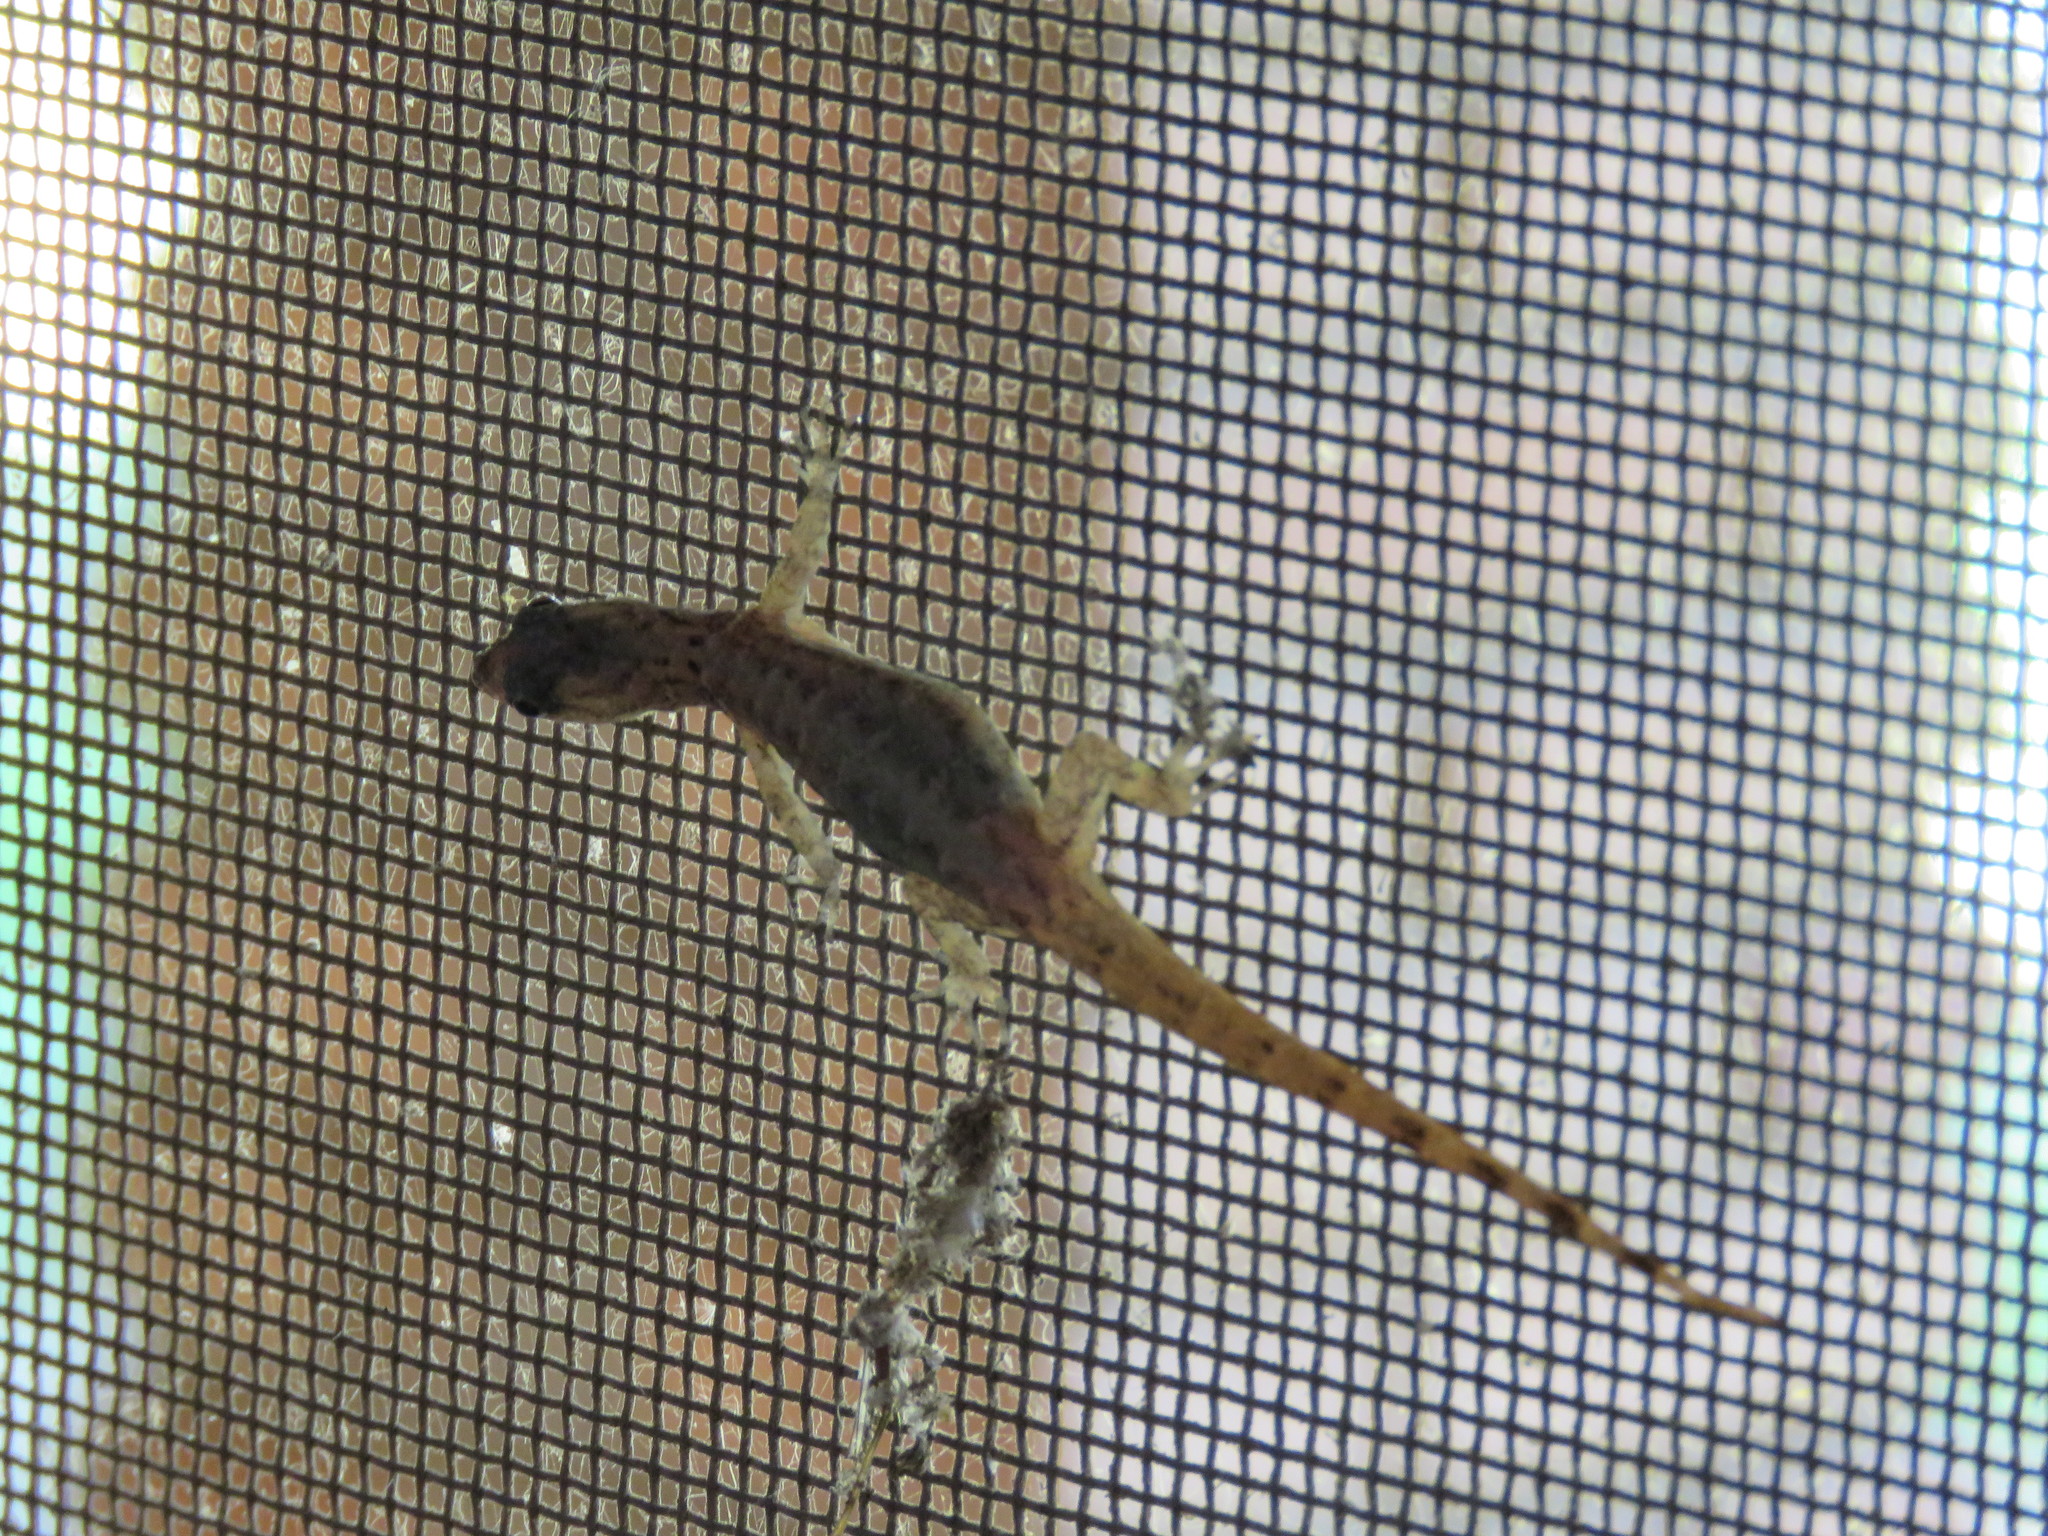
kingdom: Animalia
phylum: Chordata
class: Squamata
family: Sphaerodactylidae
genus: Gonatodes
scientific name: Gonatodes humeralis
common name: South american clawed gecko
